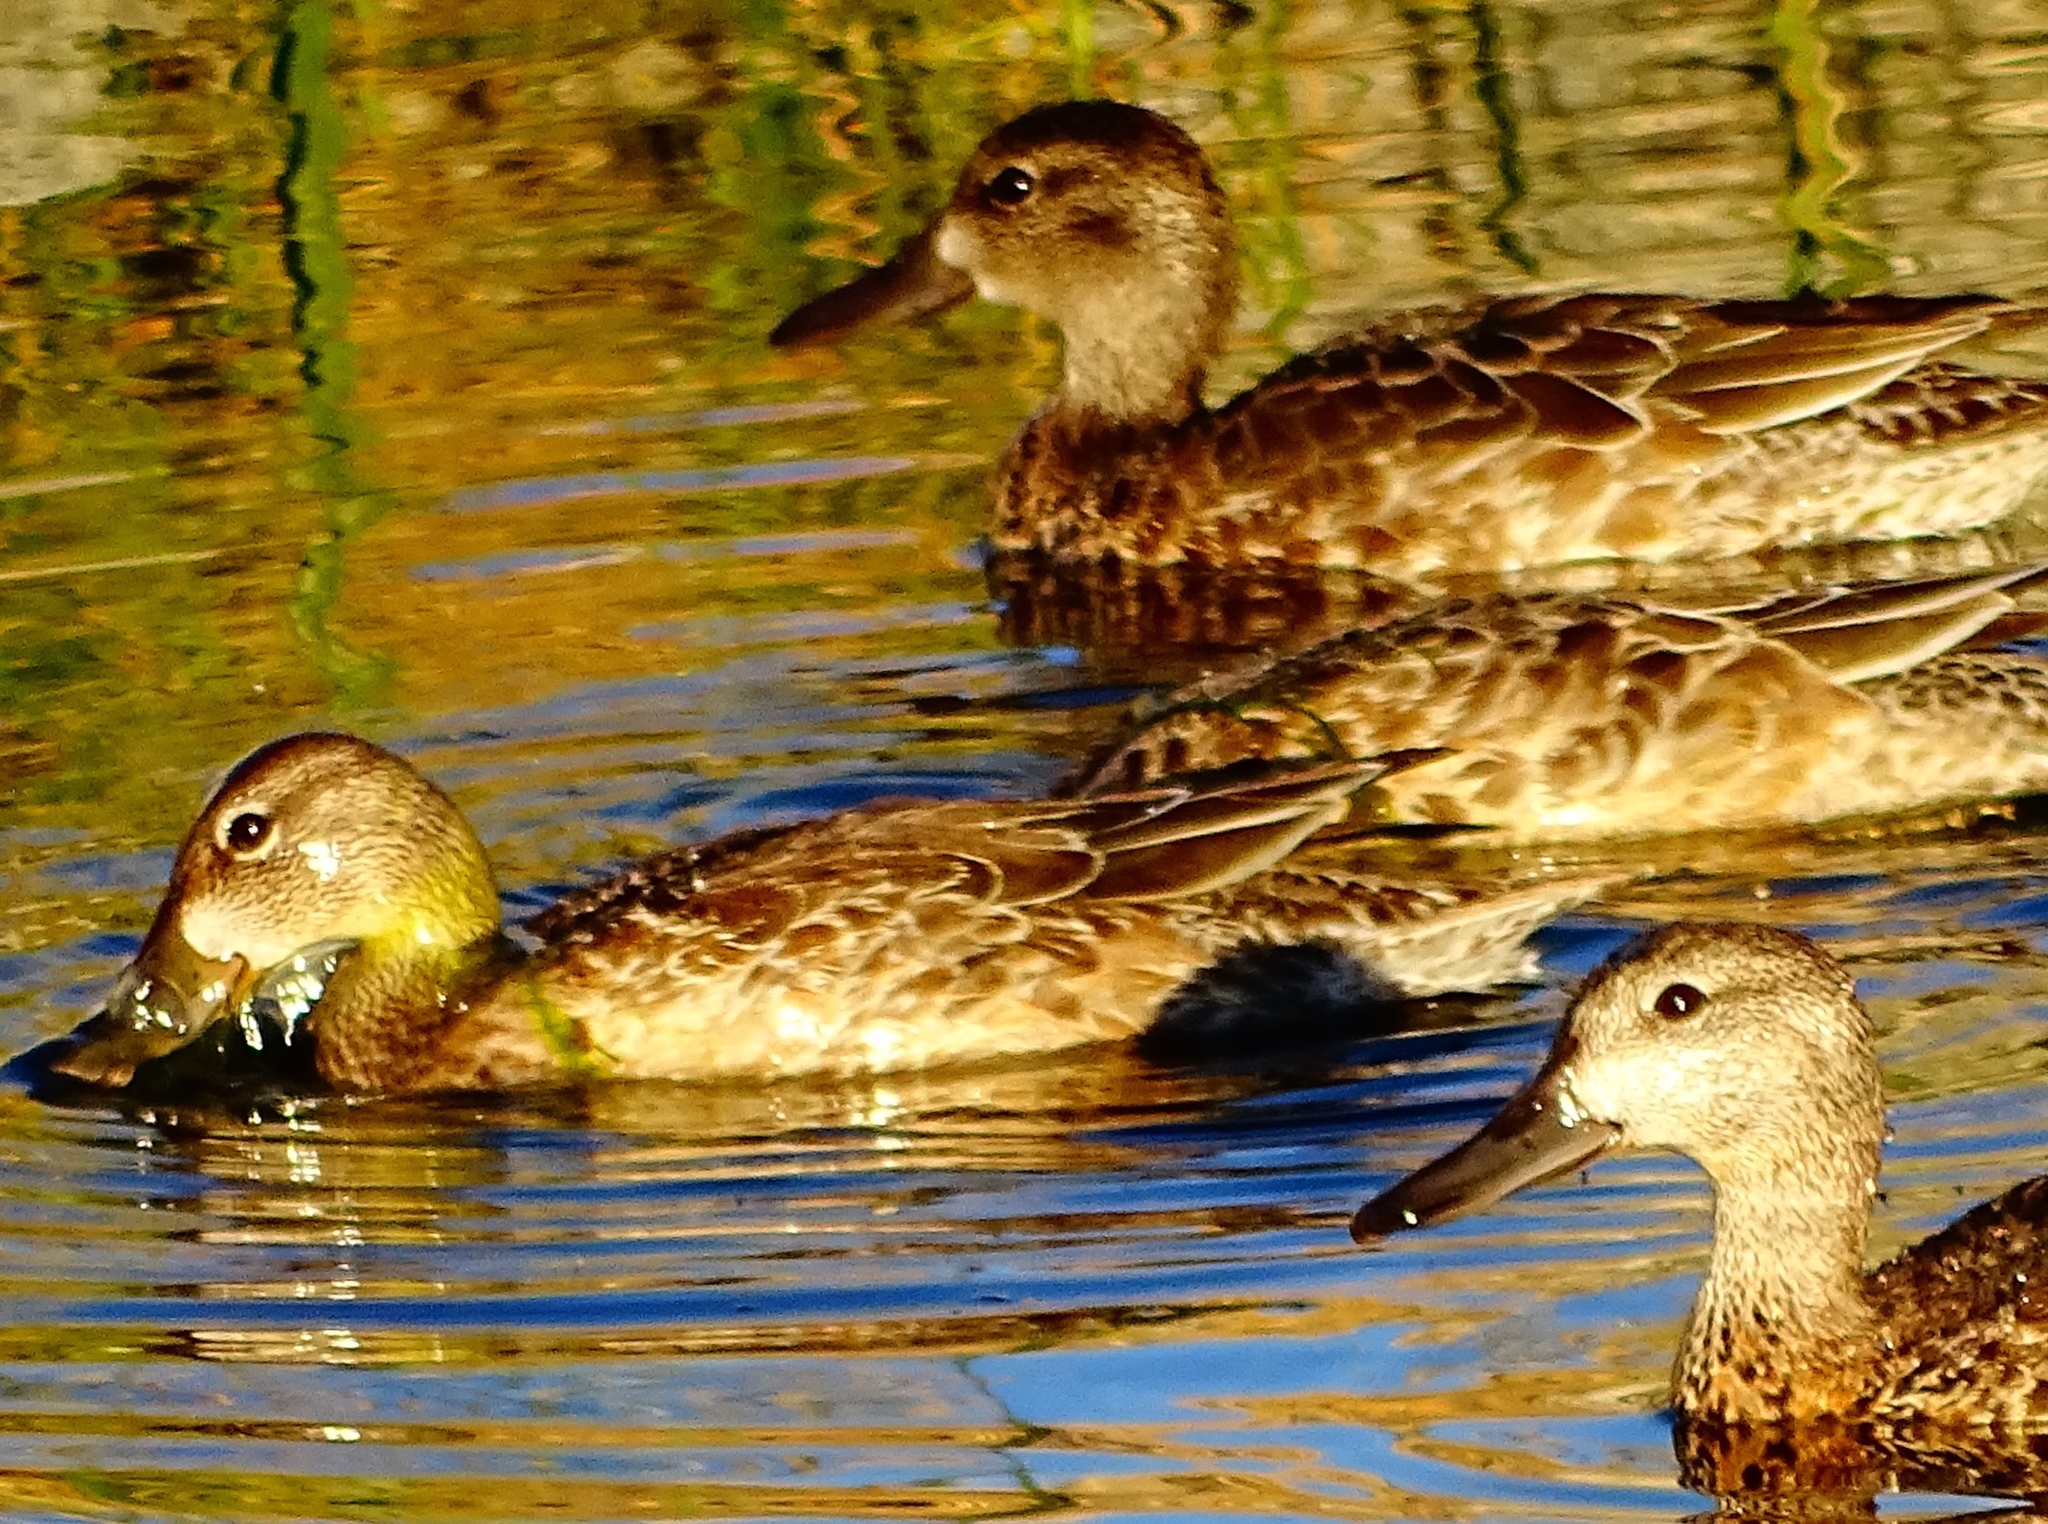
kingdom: Animalia
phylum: Chordata
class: Aves
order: Anseriformes
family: Anatidae
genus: Spatula
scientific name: Spatula discors
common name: Blue-winged teal
